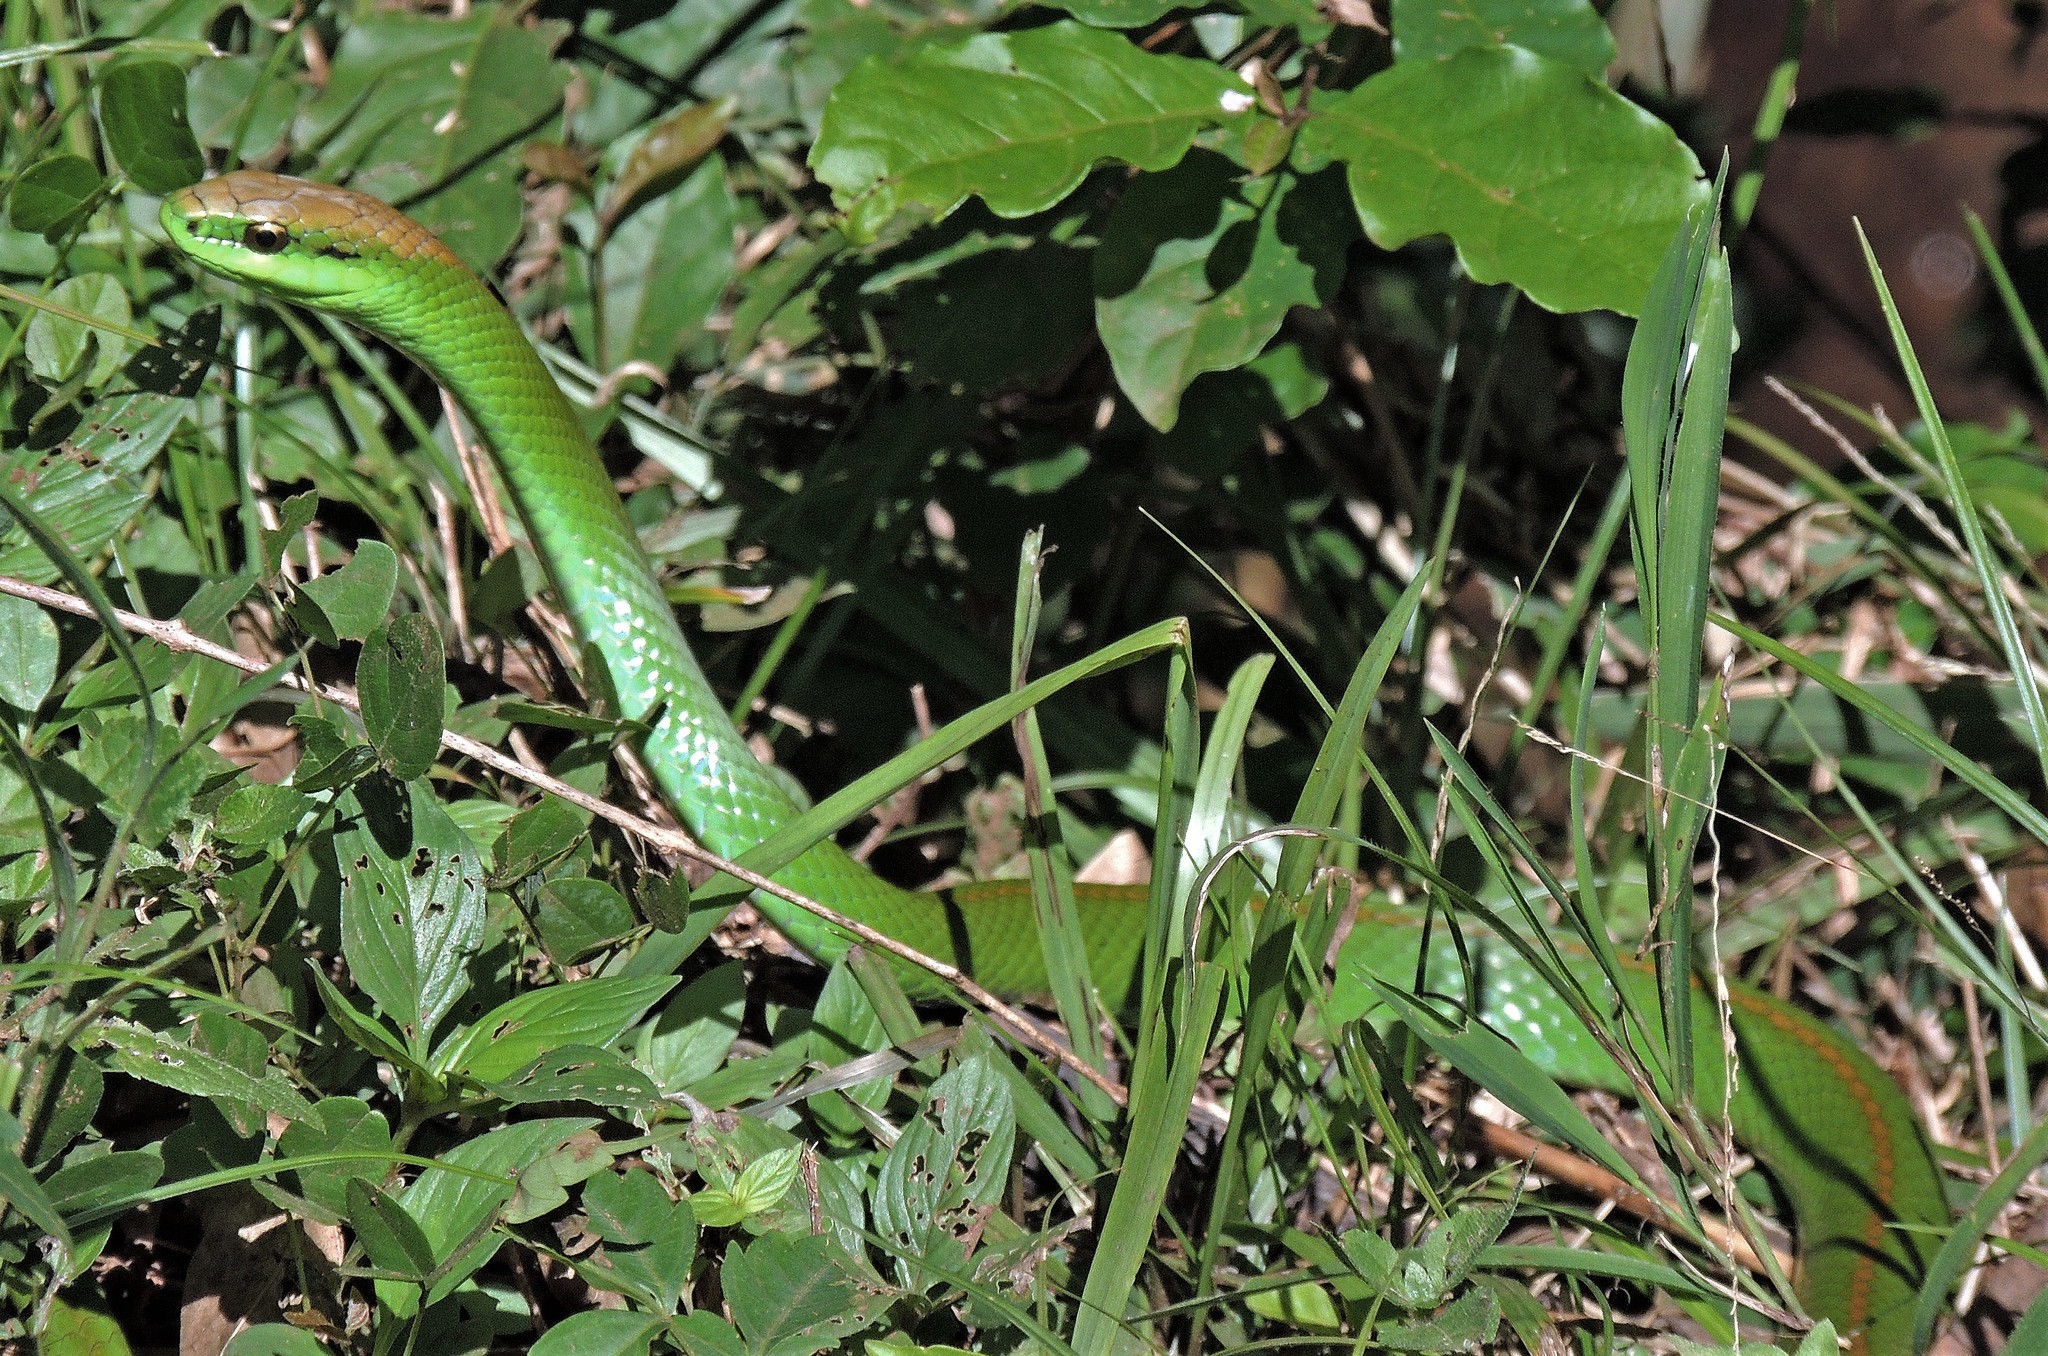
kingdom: Animalia
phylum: Chordata
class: Squamata
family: Colubridae
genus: Philodryas
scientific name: Philodryas olfersii
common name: Lichtenstein's green racer
